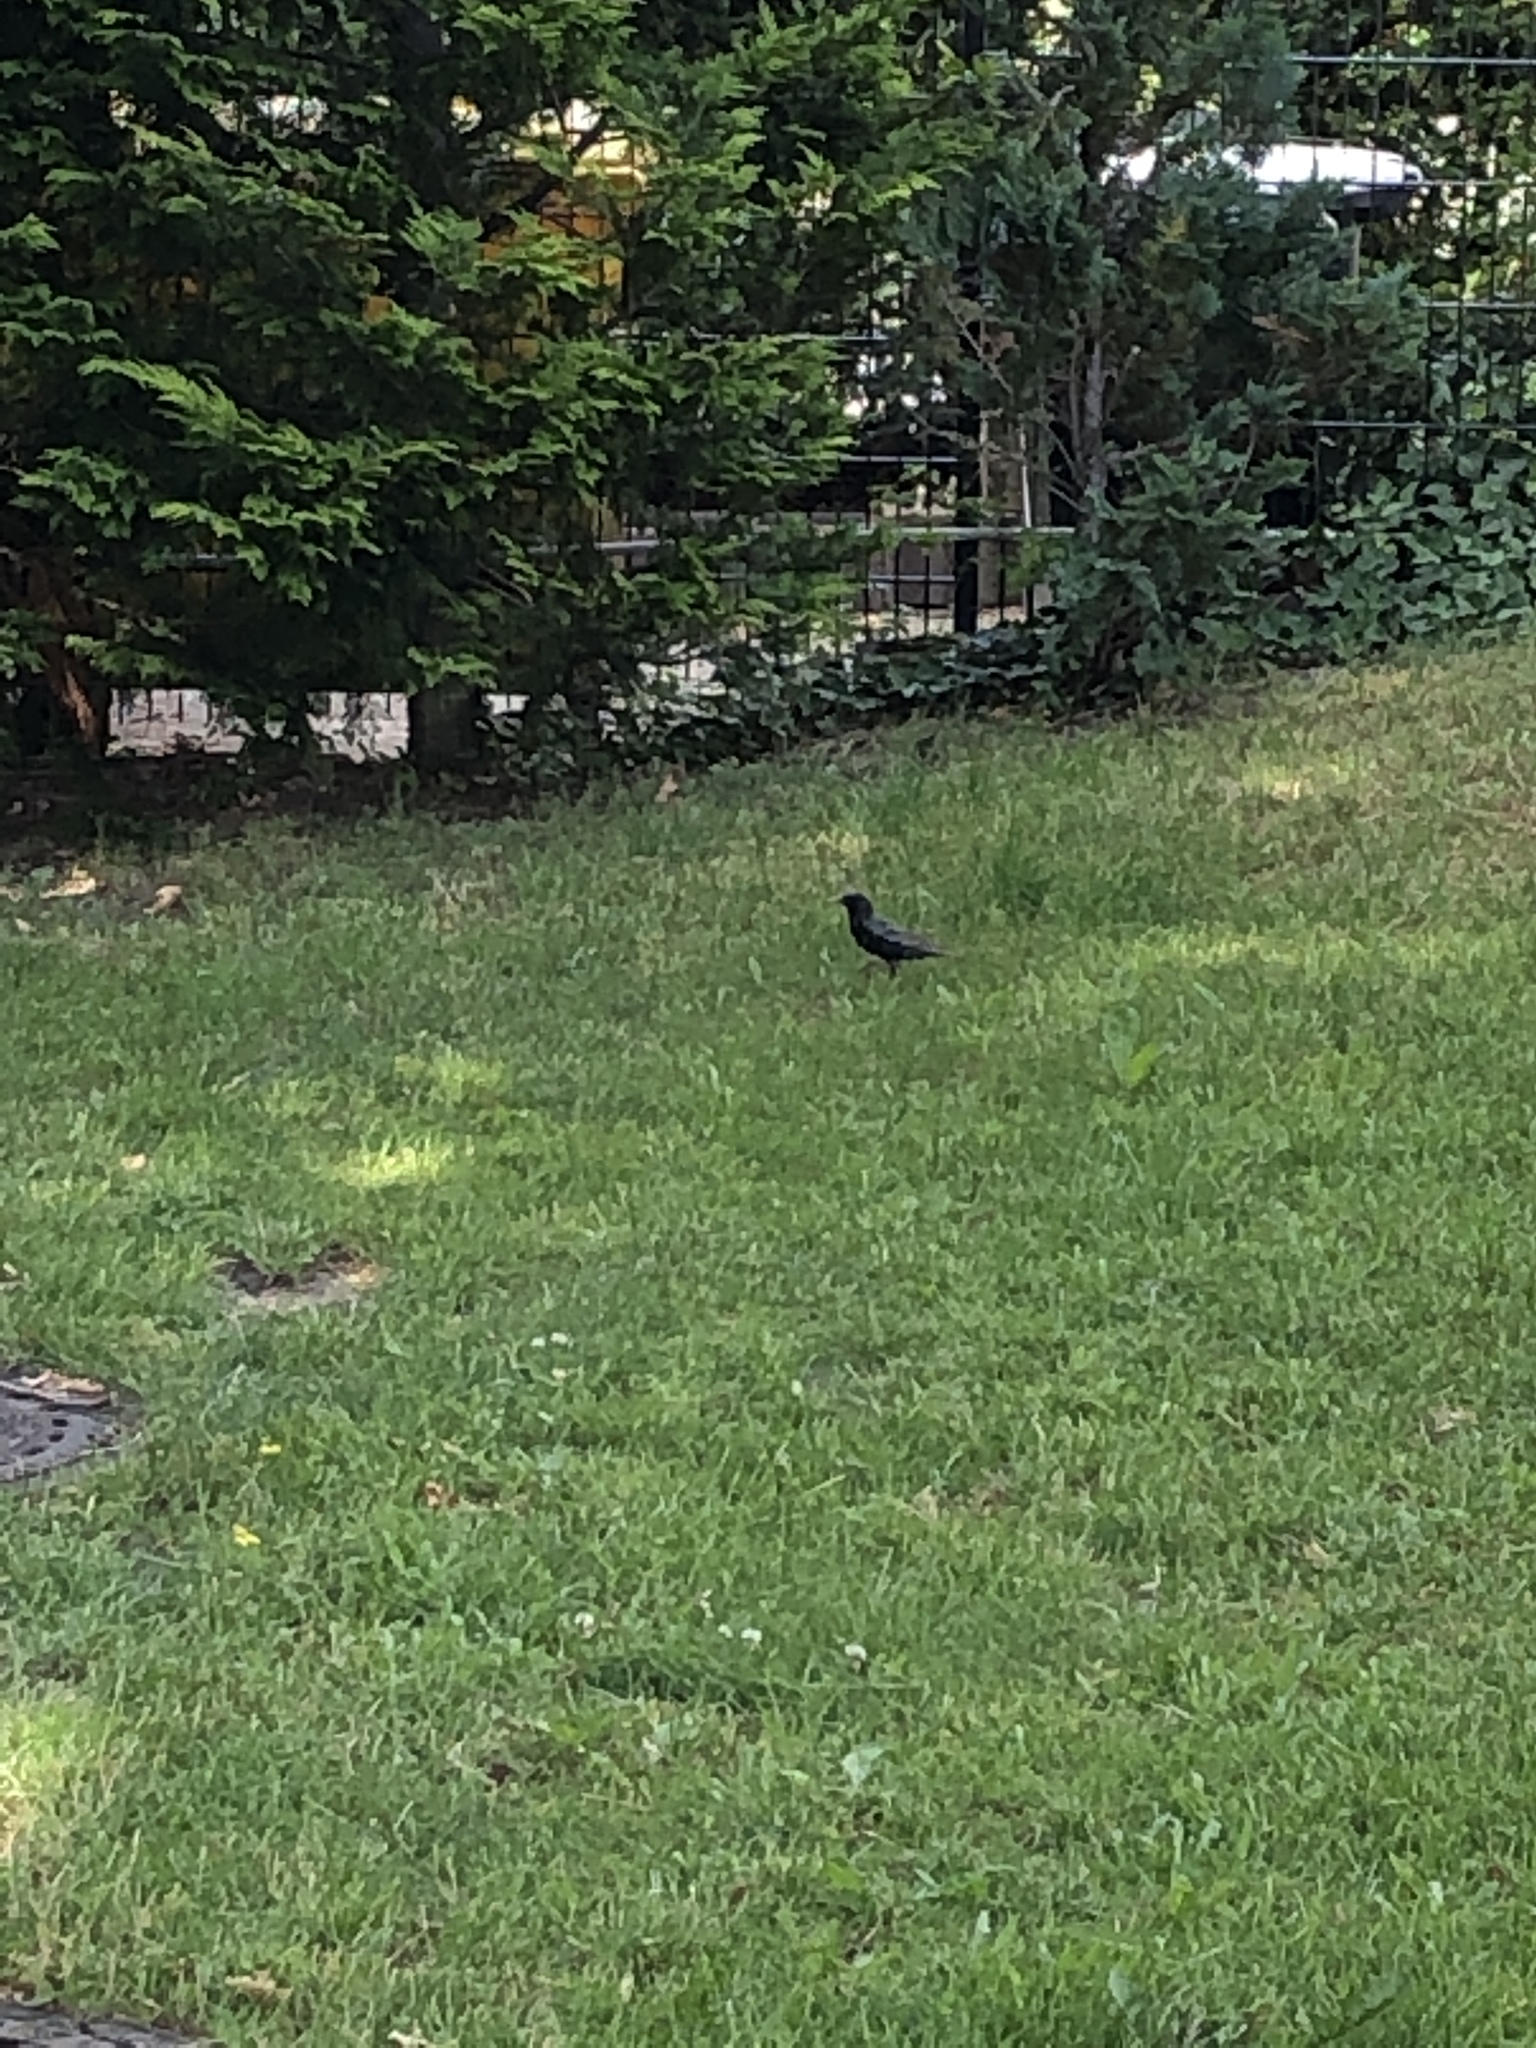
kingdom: Animalia
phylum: Chordata
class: Aves
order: Passeriformes
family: Sturnidae
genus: Sturnus
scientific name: Sturnus vulgaris
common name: Common starling
